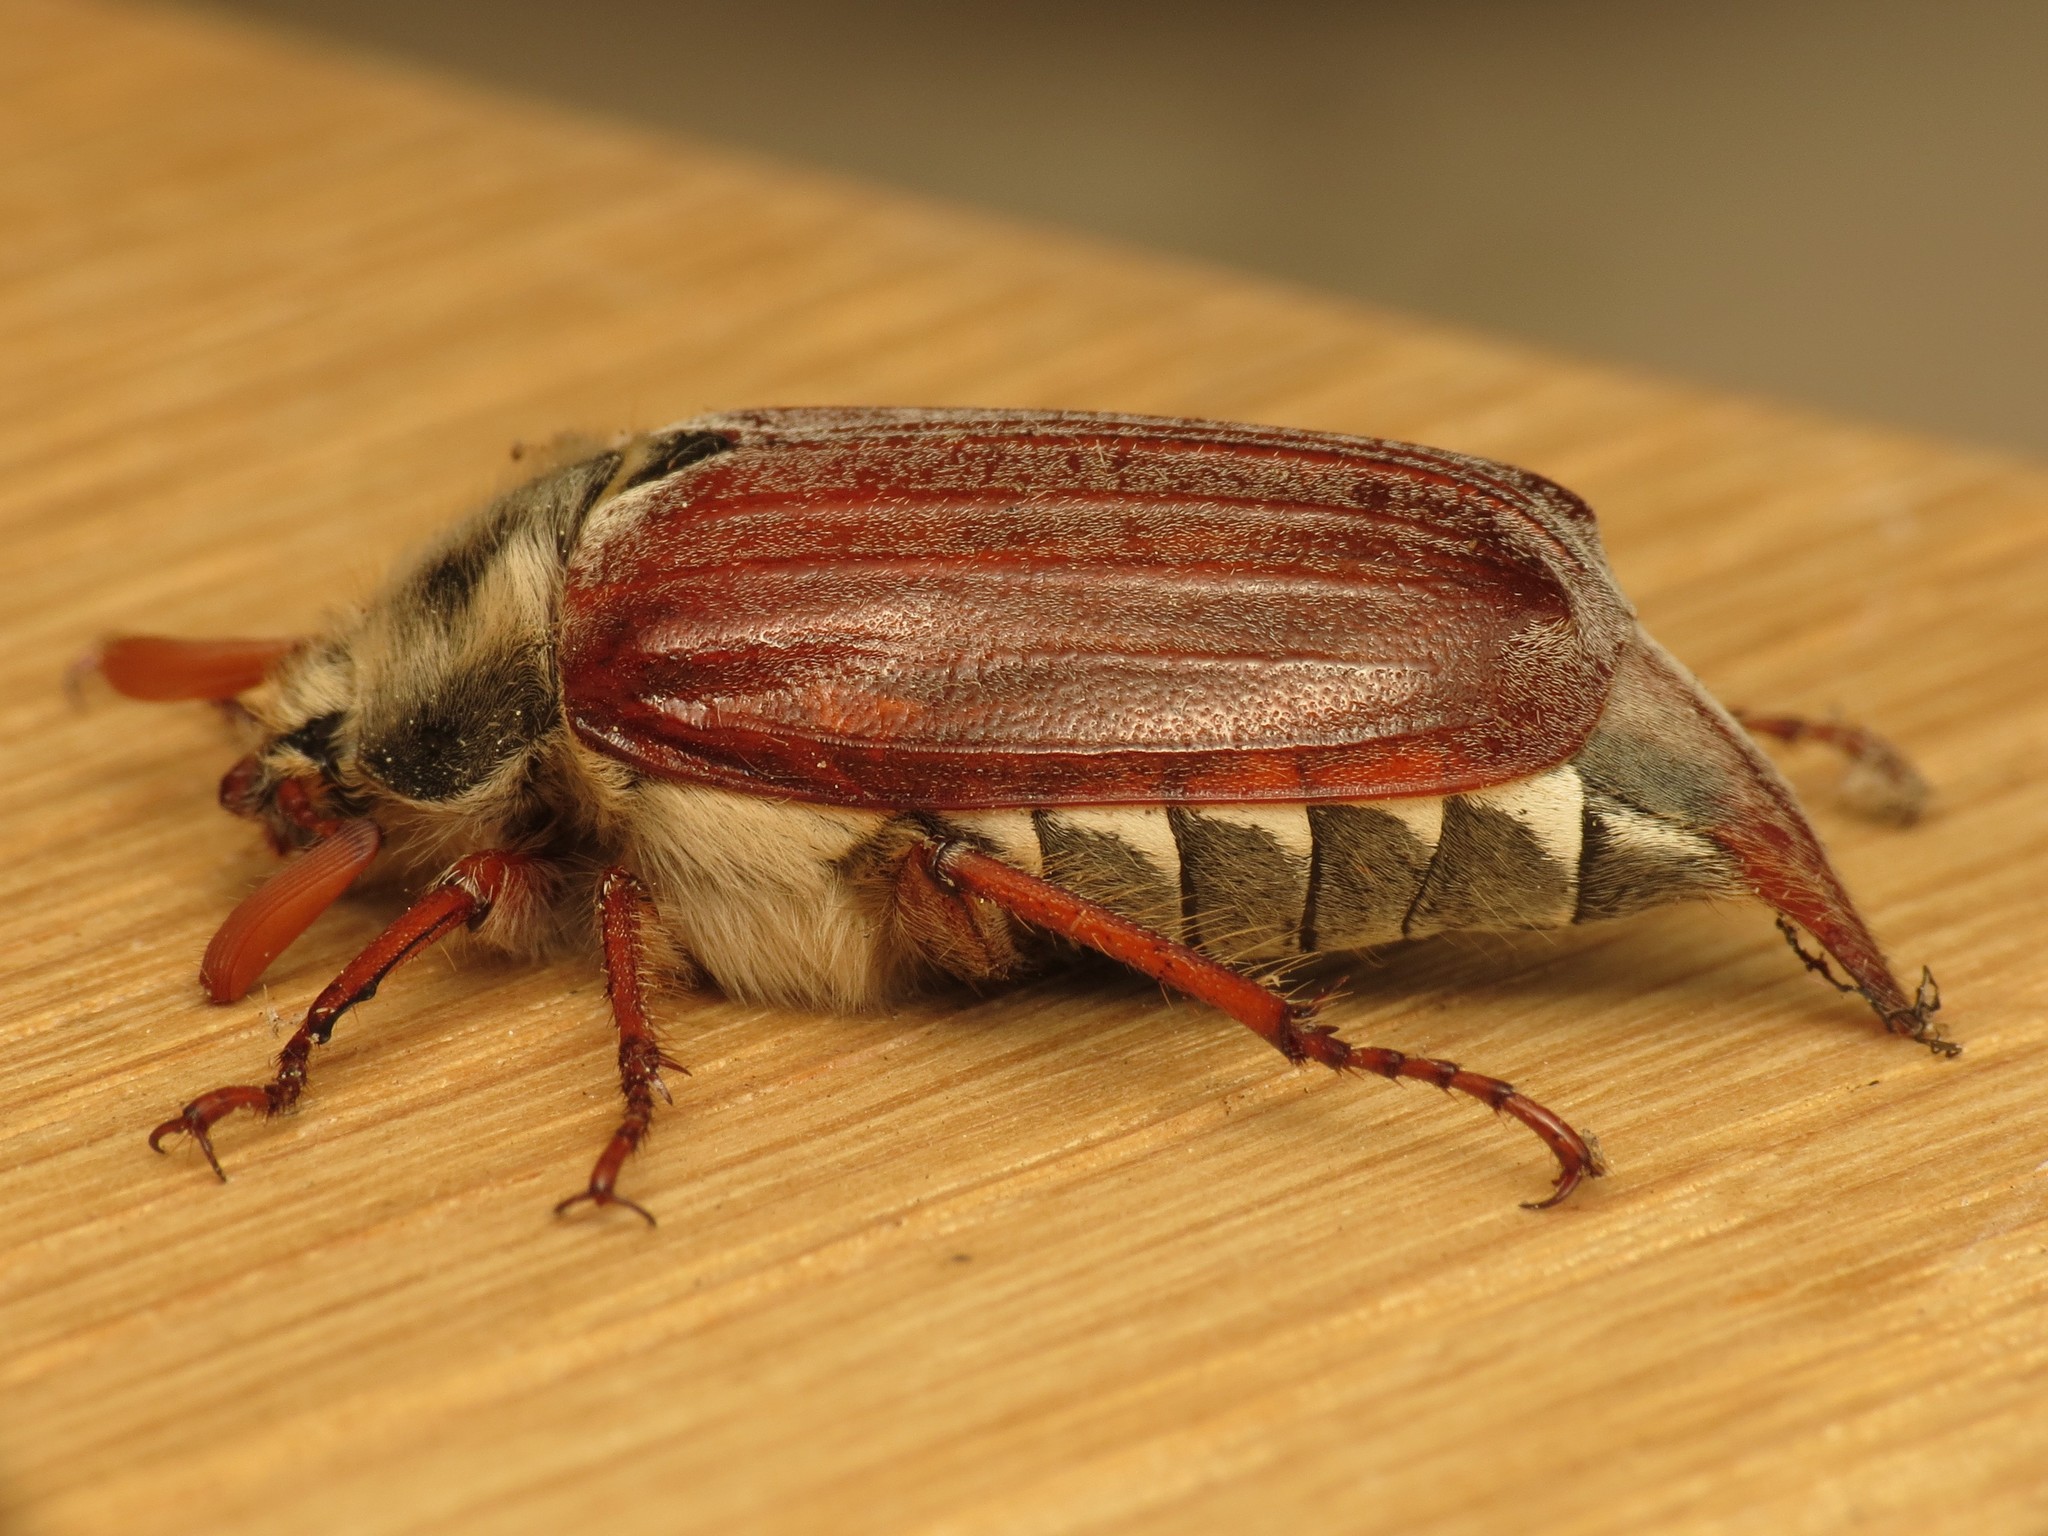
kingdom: Animalia
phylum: Arthropoda
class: Insecta
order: Coleoptera
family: Scarabaeidae
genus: Melolontha
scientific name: Melolontha melolontha
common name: Cockchafer maybeetle
